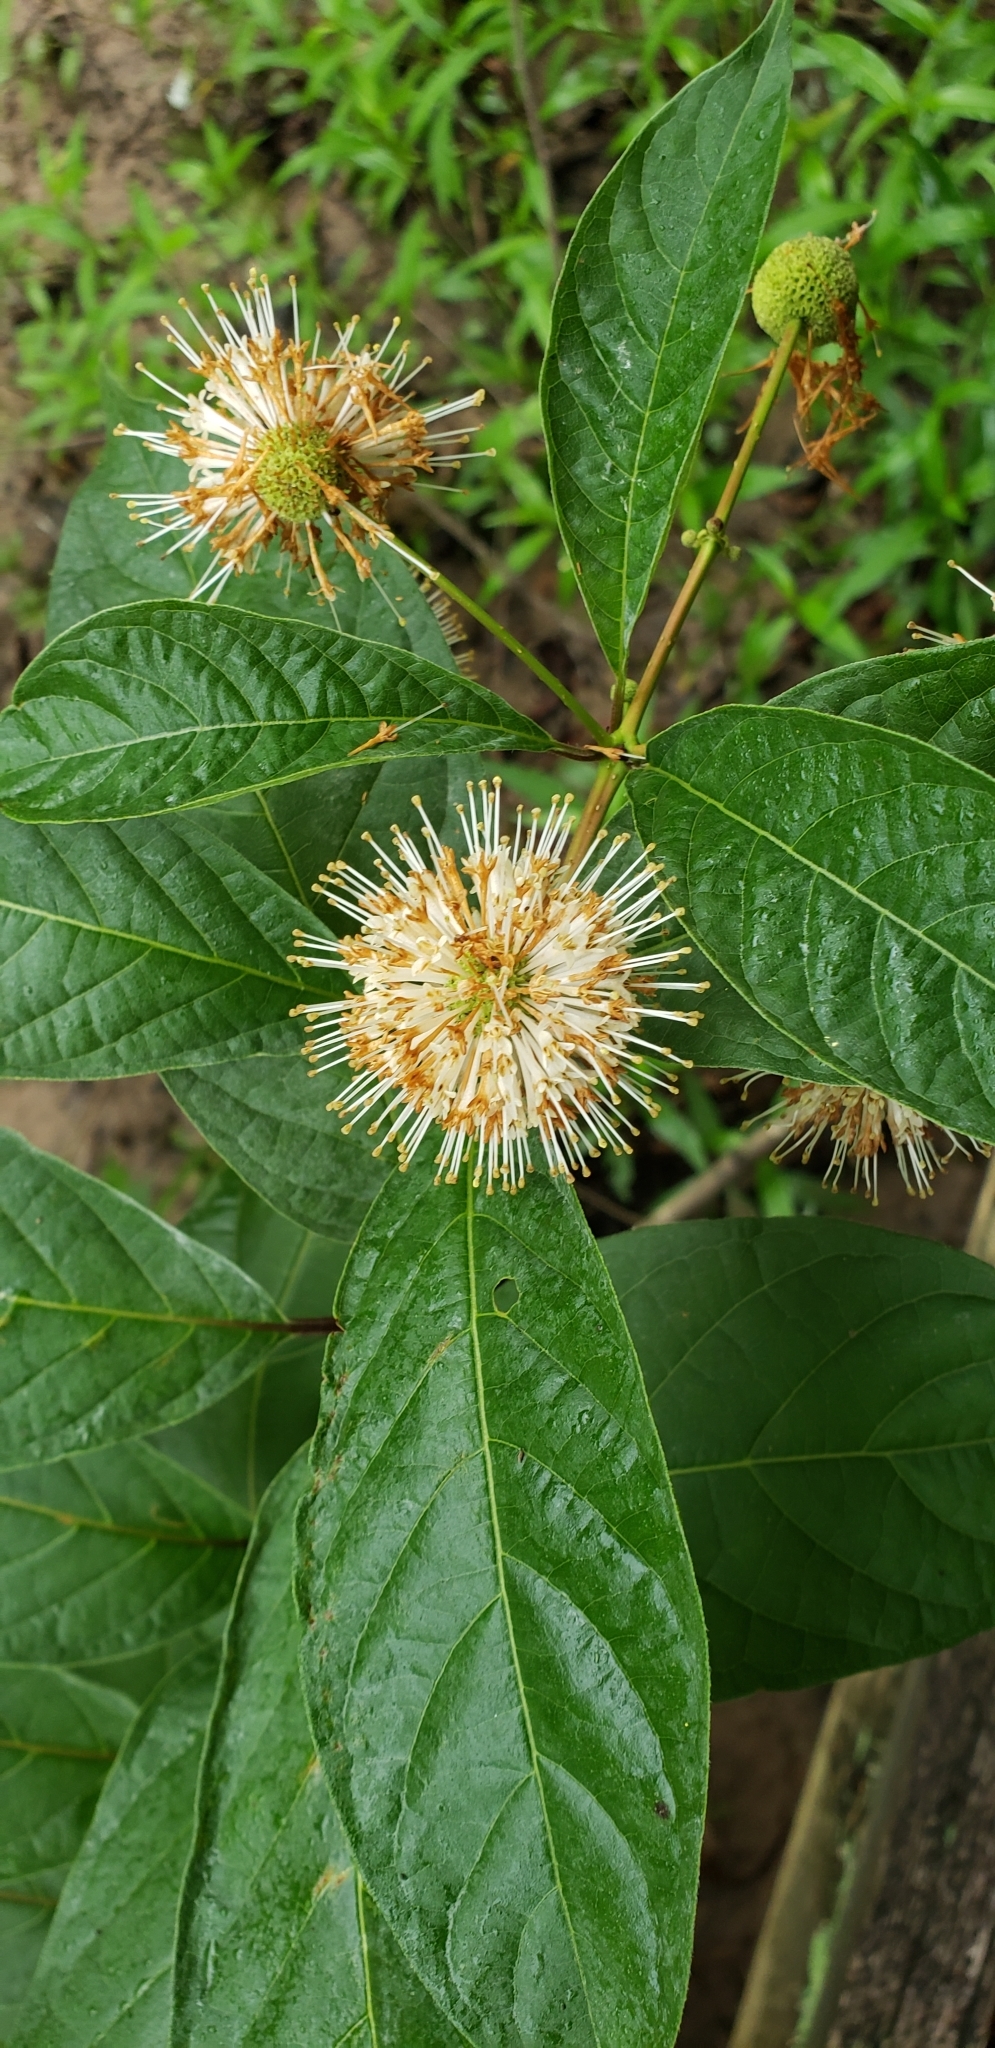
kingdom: Plantae
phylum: Tracheophyta
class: Magnoliopsida
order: Gentianales
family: Rubiaceae
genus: Cephalanthus
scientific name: Cephalanthus occidentalis
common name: Button-willow
